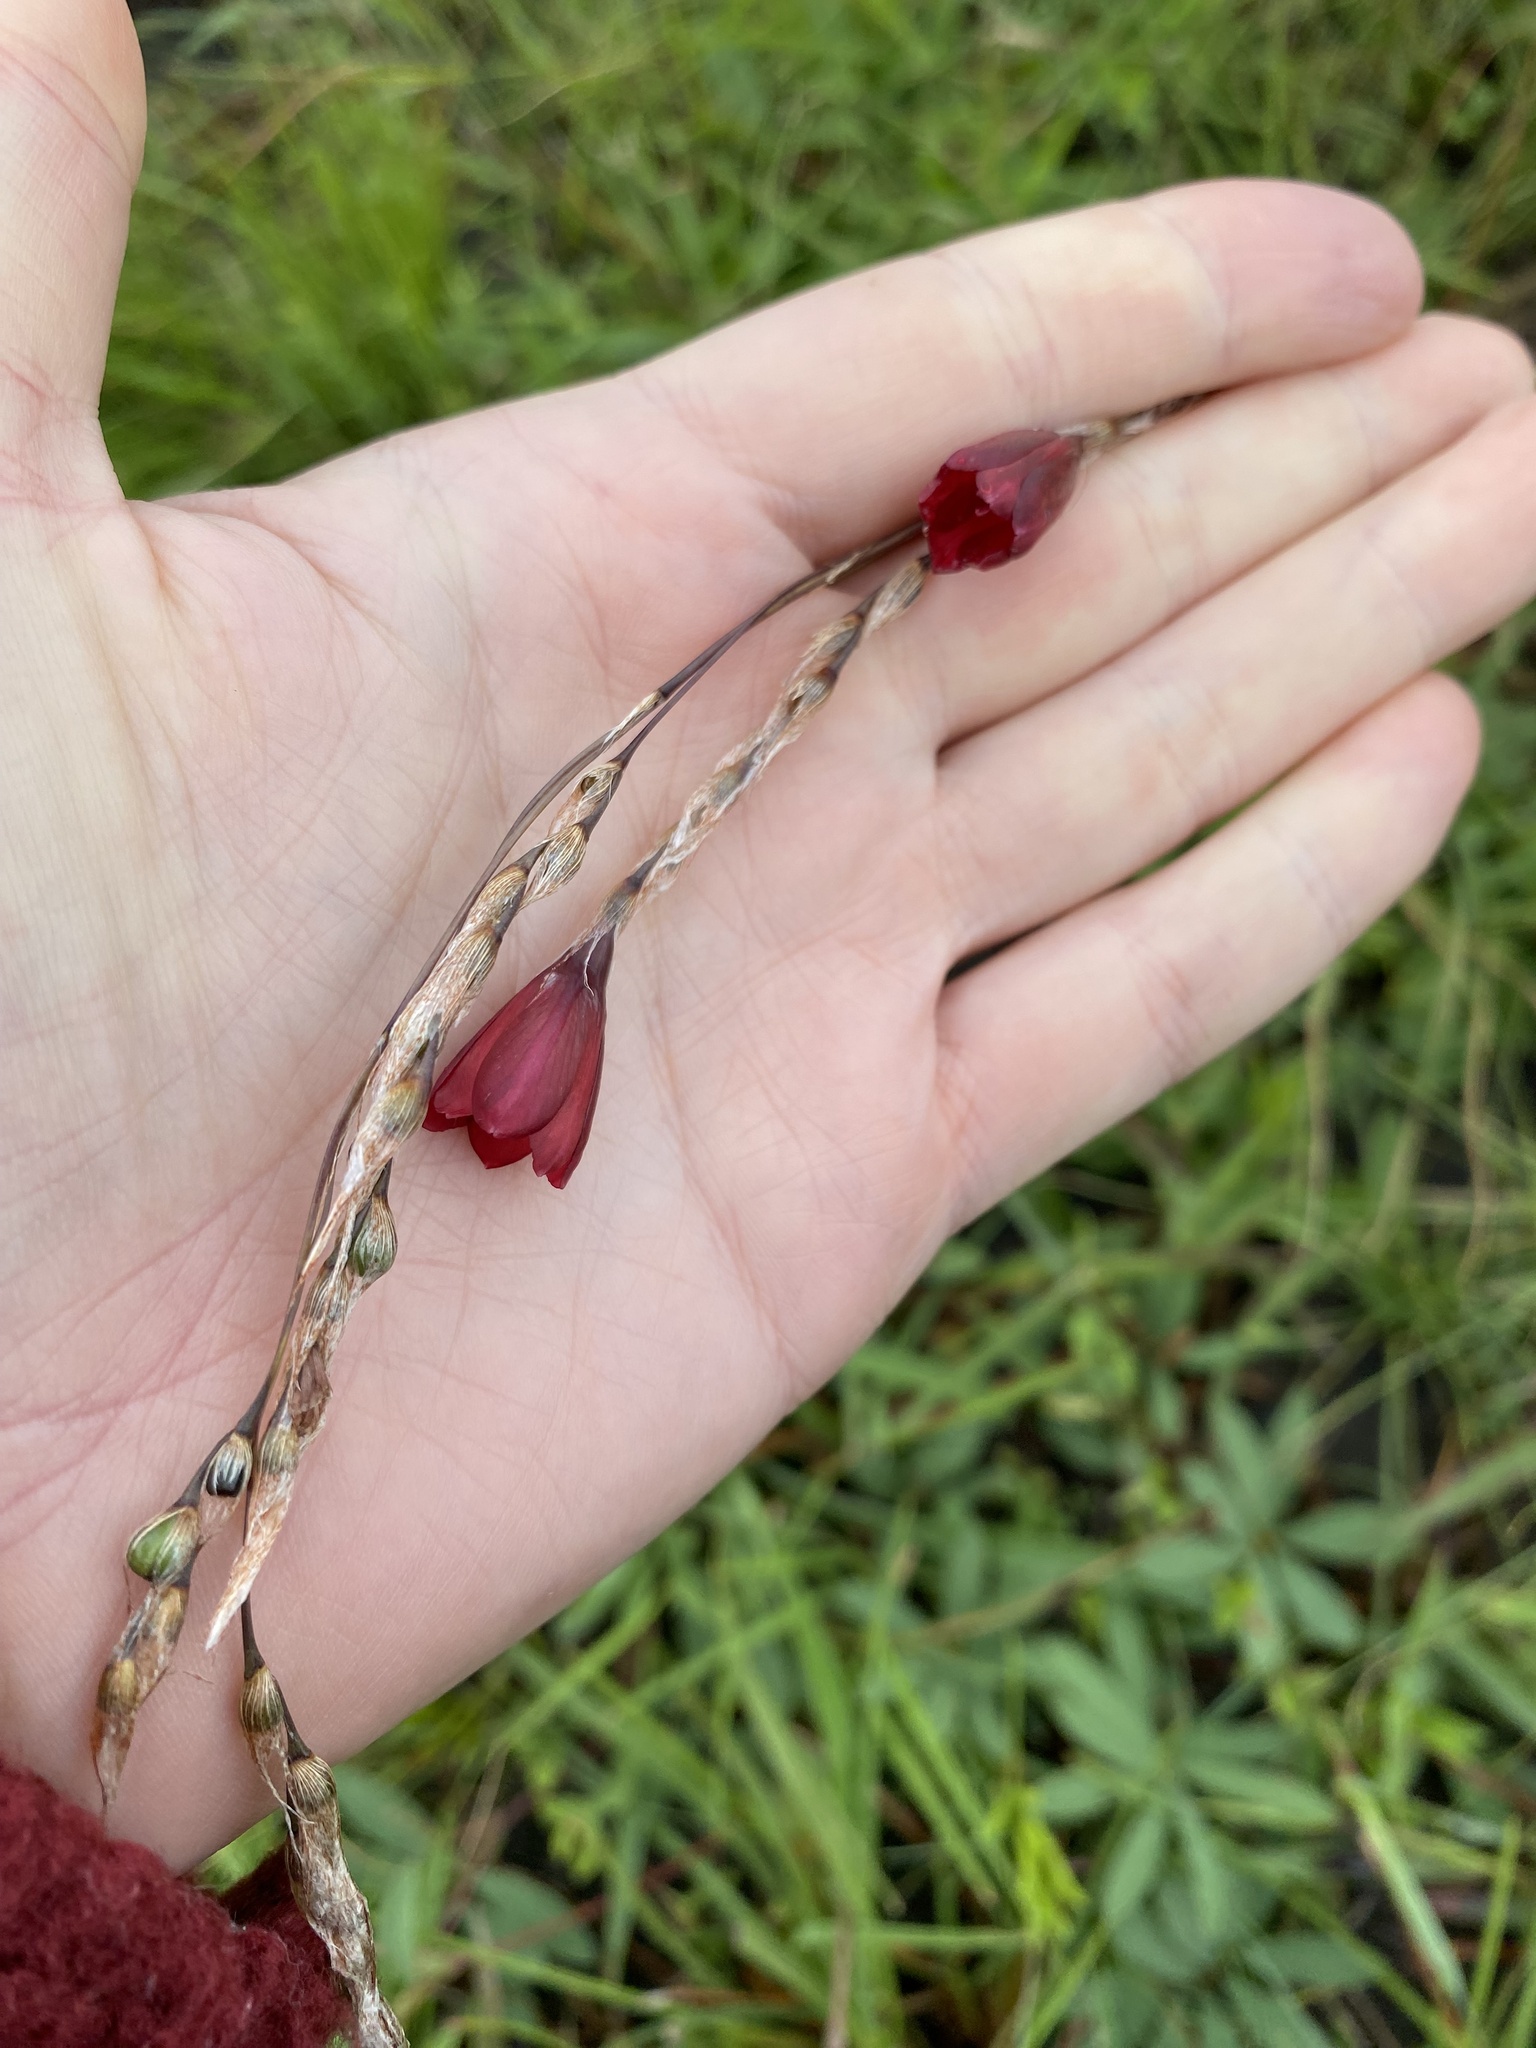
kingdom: Plantae
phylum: Tracheophyta
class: Liliopsida
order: Asparagales
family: Iridaceae
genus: Dierama
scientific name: Dierama atrum
